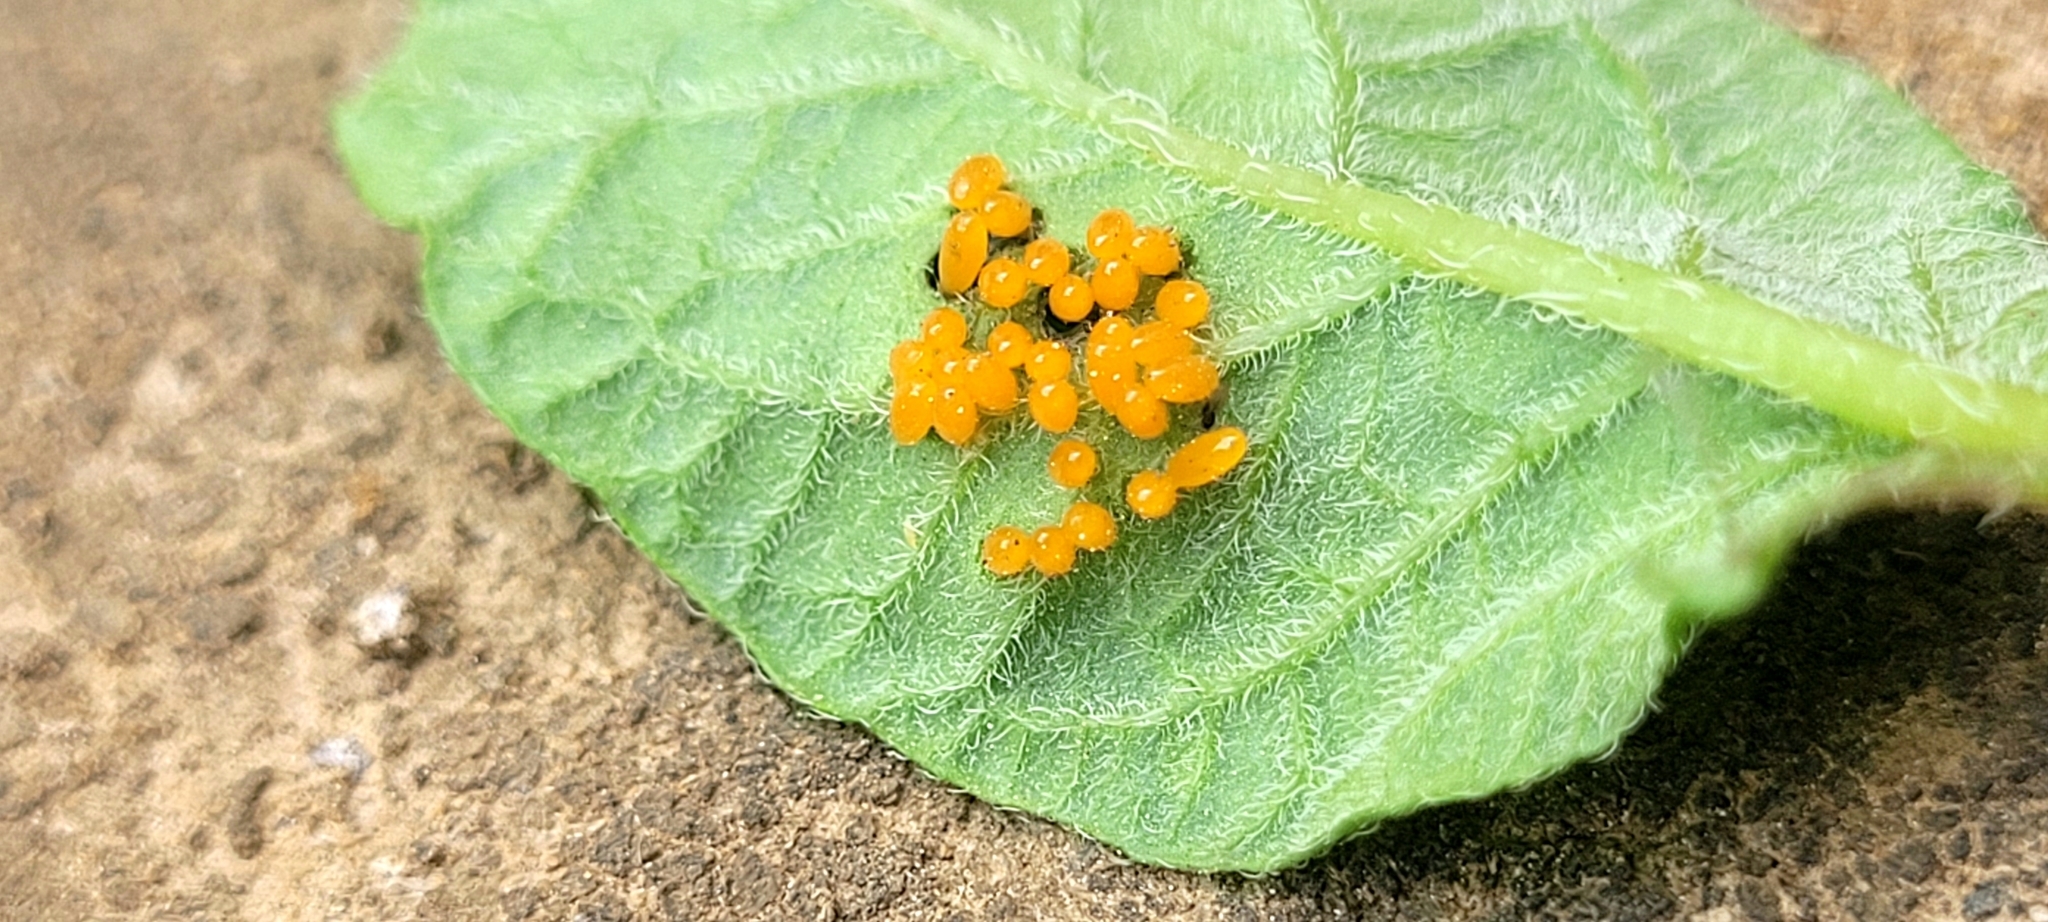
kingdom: Animalia
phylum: Arthropoda
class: Insecta
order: Coleoptera
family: Chrysomelidae
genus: Leptinotarsa
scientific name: Leptinotarsa decemlineata
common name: Colorado potato beetle
